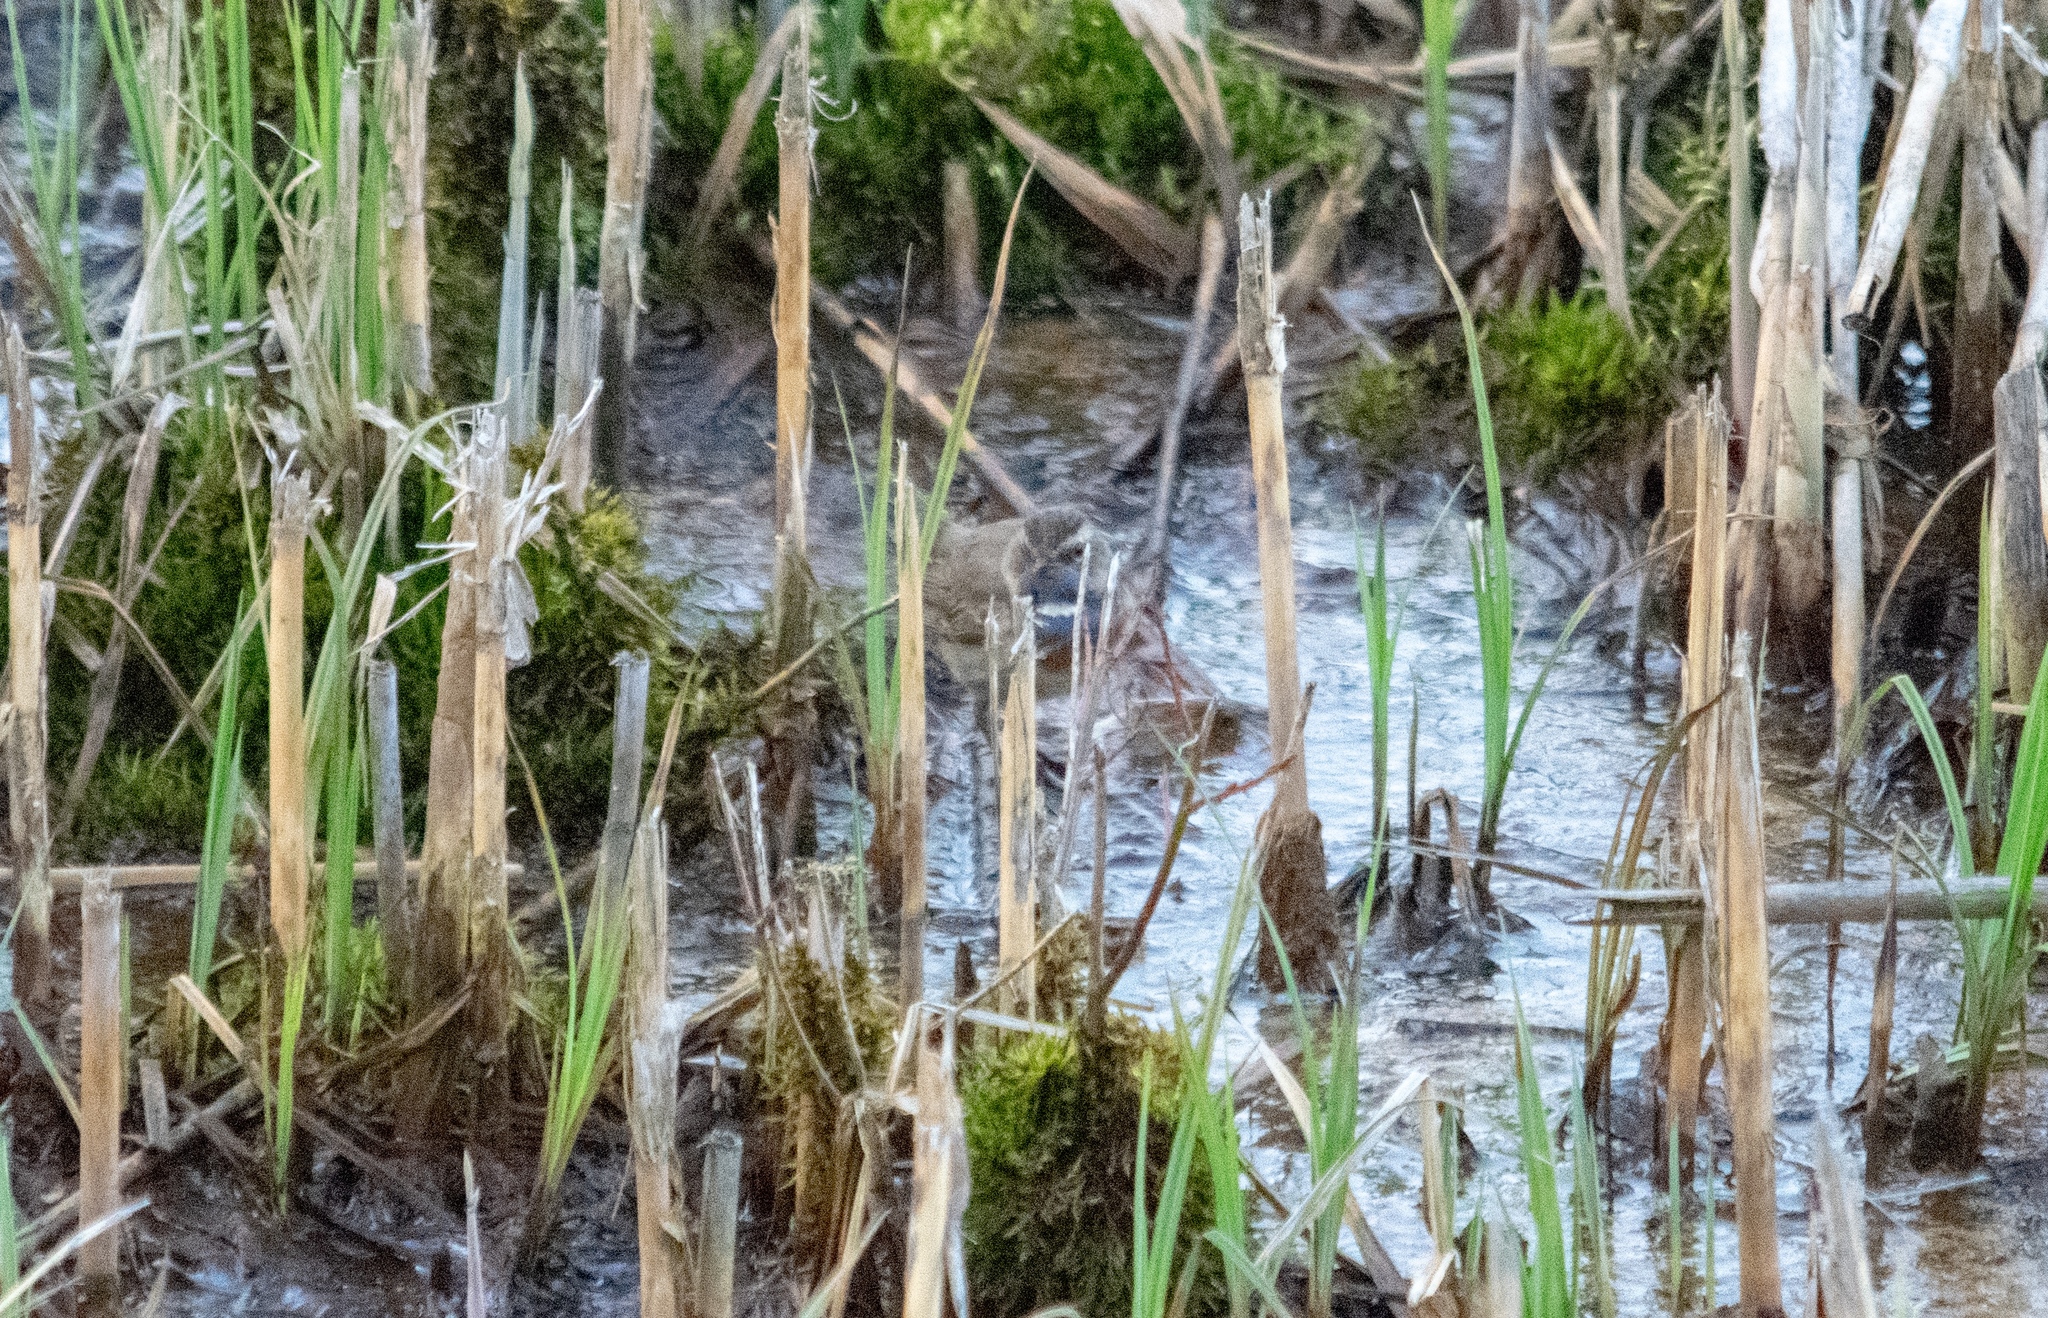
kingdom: Animalia
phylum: Chordata
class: Aves
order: Passeriformes
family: Muscicapidae
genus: Luscinia
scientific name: Luscinia svecica
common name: Bluethroat
